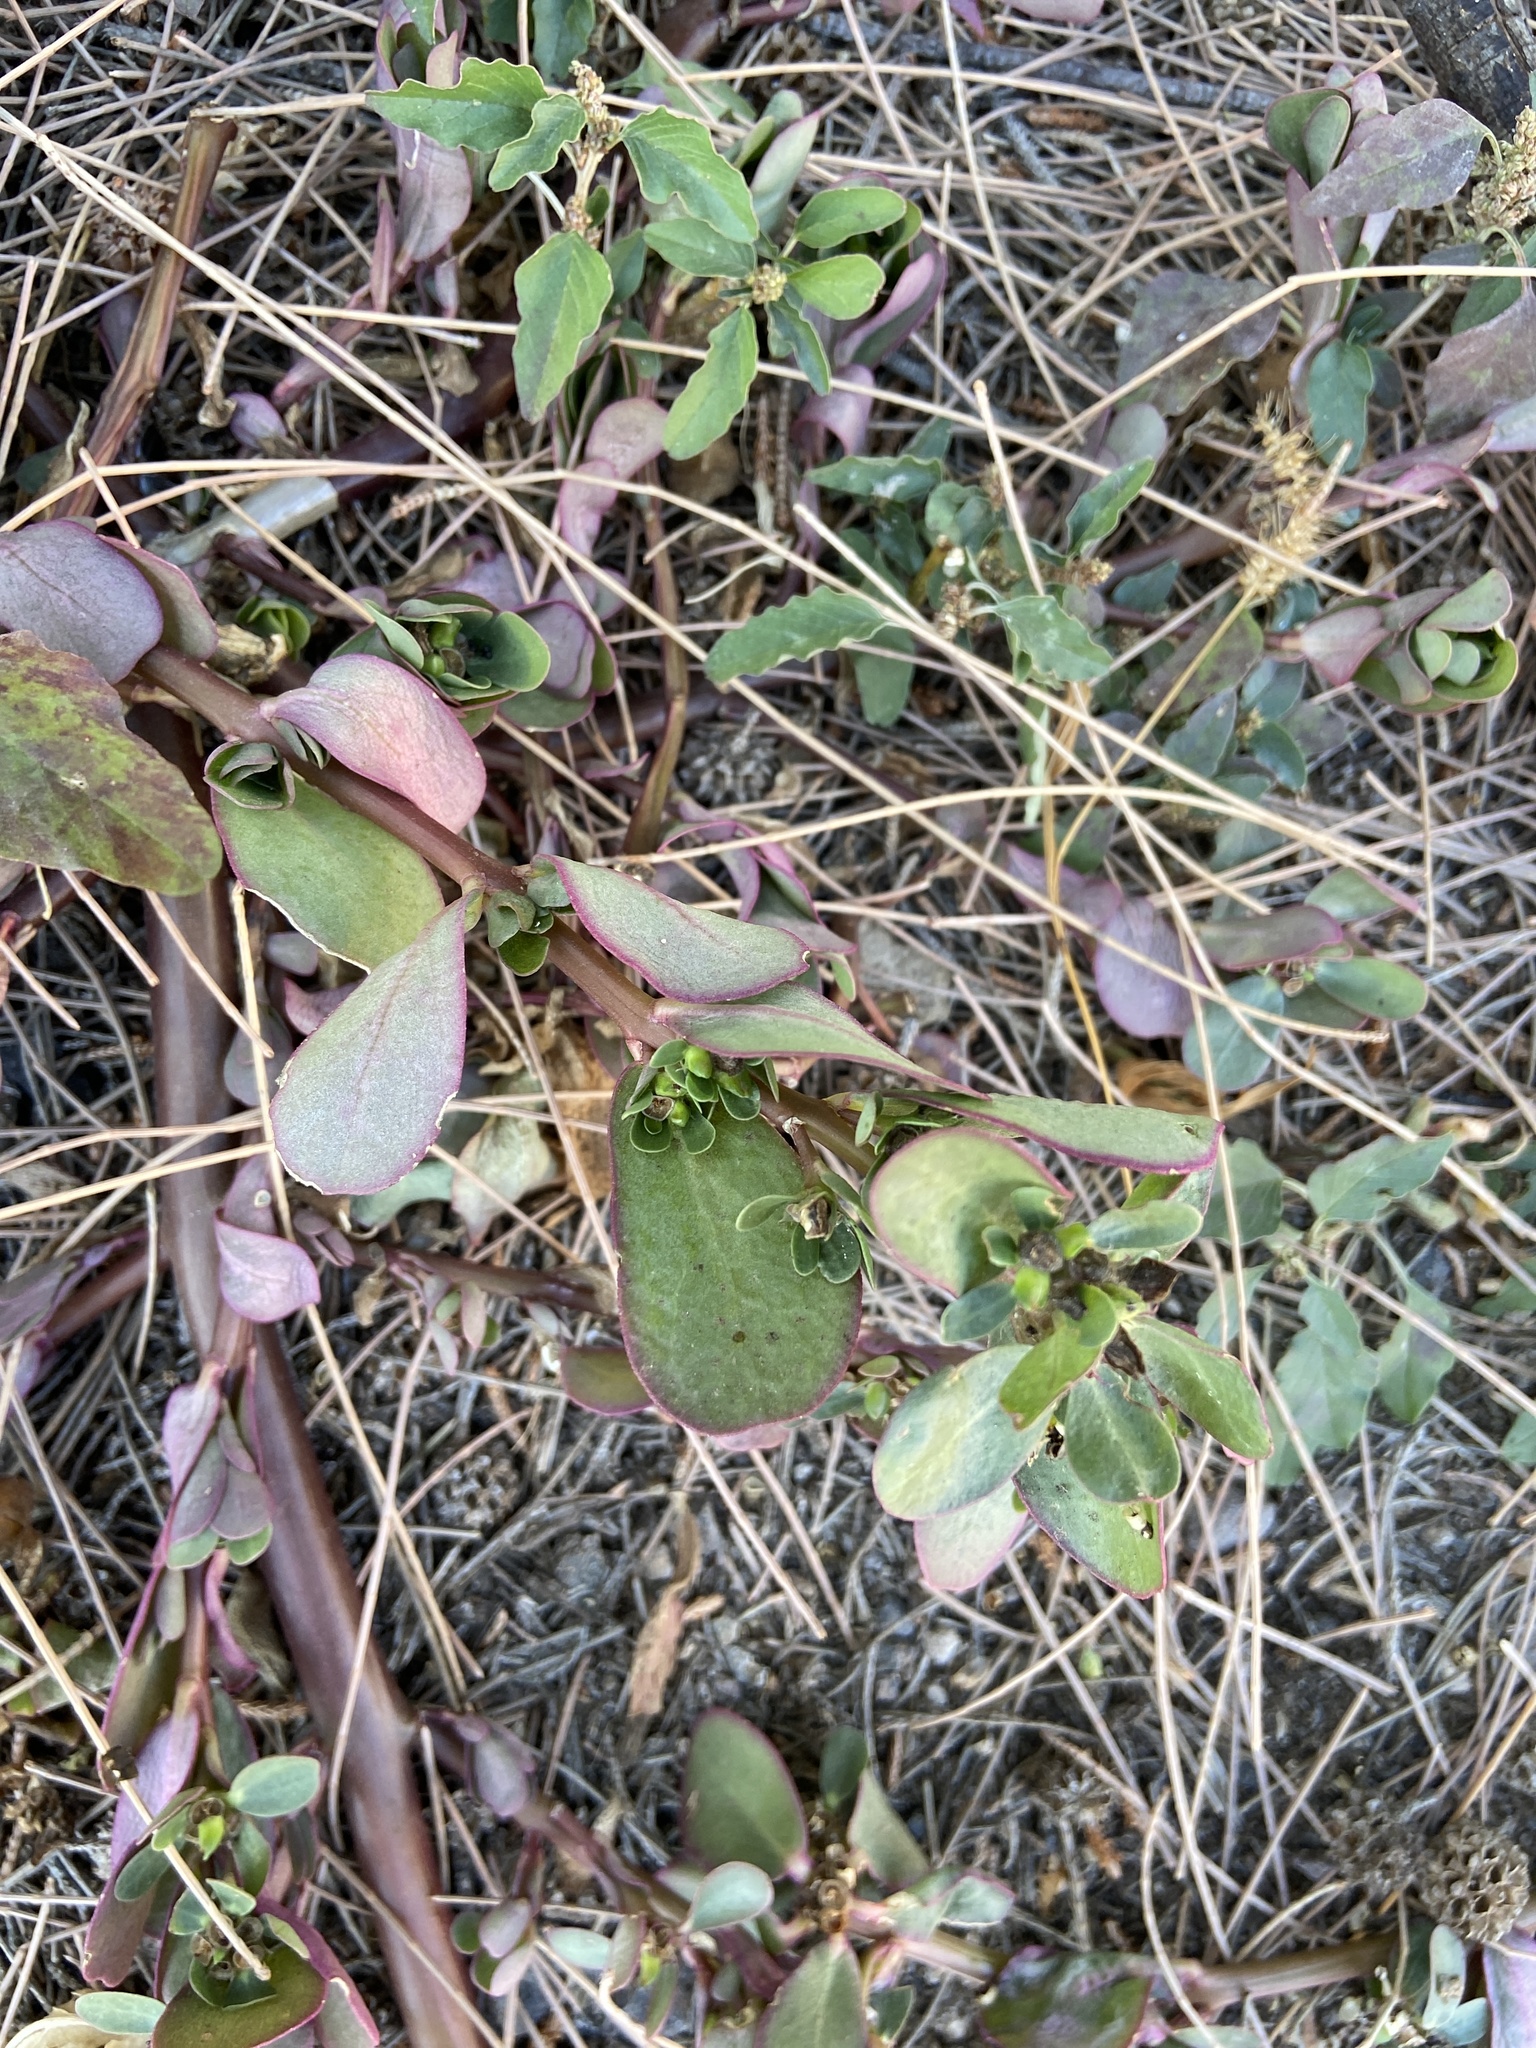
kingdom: Plantae
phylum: Tracheophyta
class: Magnoliopsida
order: Caryophyllales
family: Portulacaceae
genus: Portulaca
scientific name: Portulaca oleracea
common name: Common purslane
